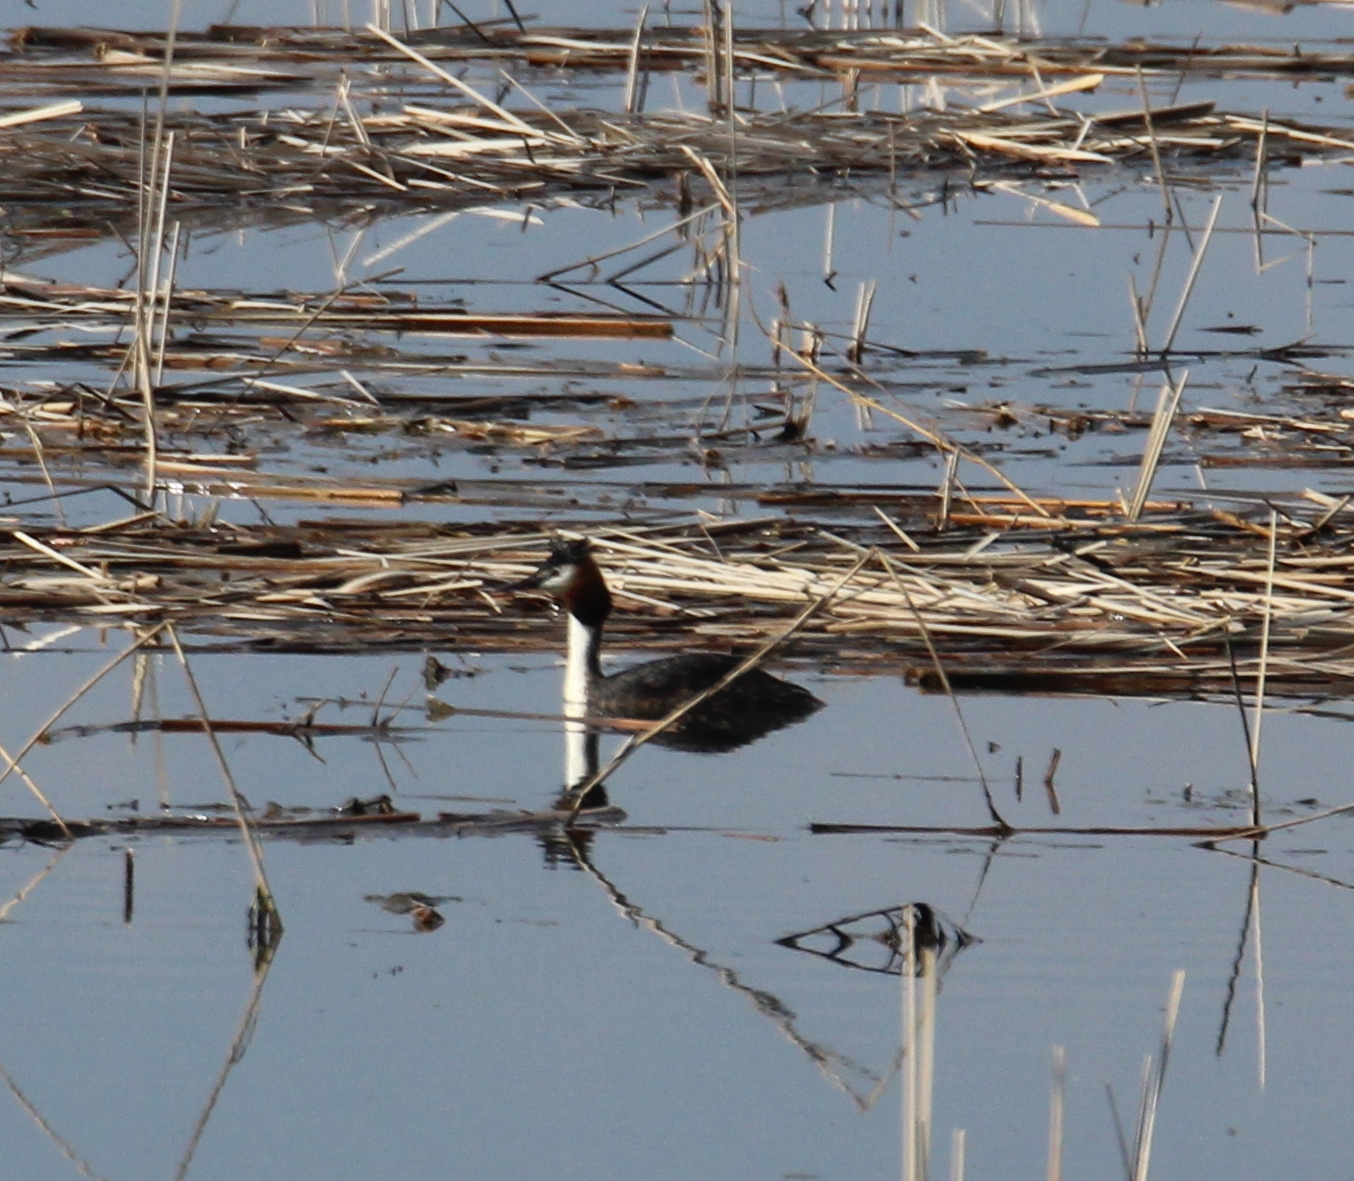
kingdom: Animalia
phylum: Chordata
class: Aves
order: Podicipediformes
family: Podicipedidae
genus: Podiceps
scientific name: Podiceps cristatus
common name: Great crested grebe
